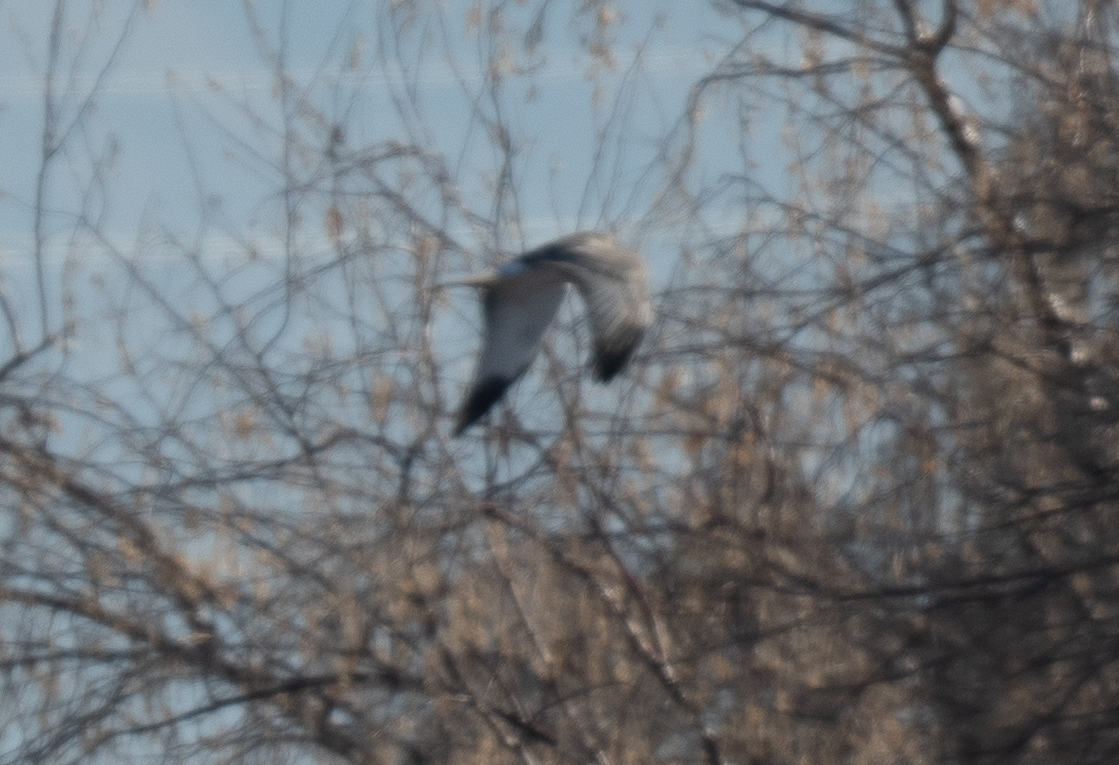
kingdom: Animalia
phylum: Chordata
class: Aves
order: Accipitriformes
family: Accipitridae
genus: Circus
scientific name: Circus cyaneus
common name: Hen harrier
